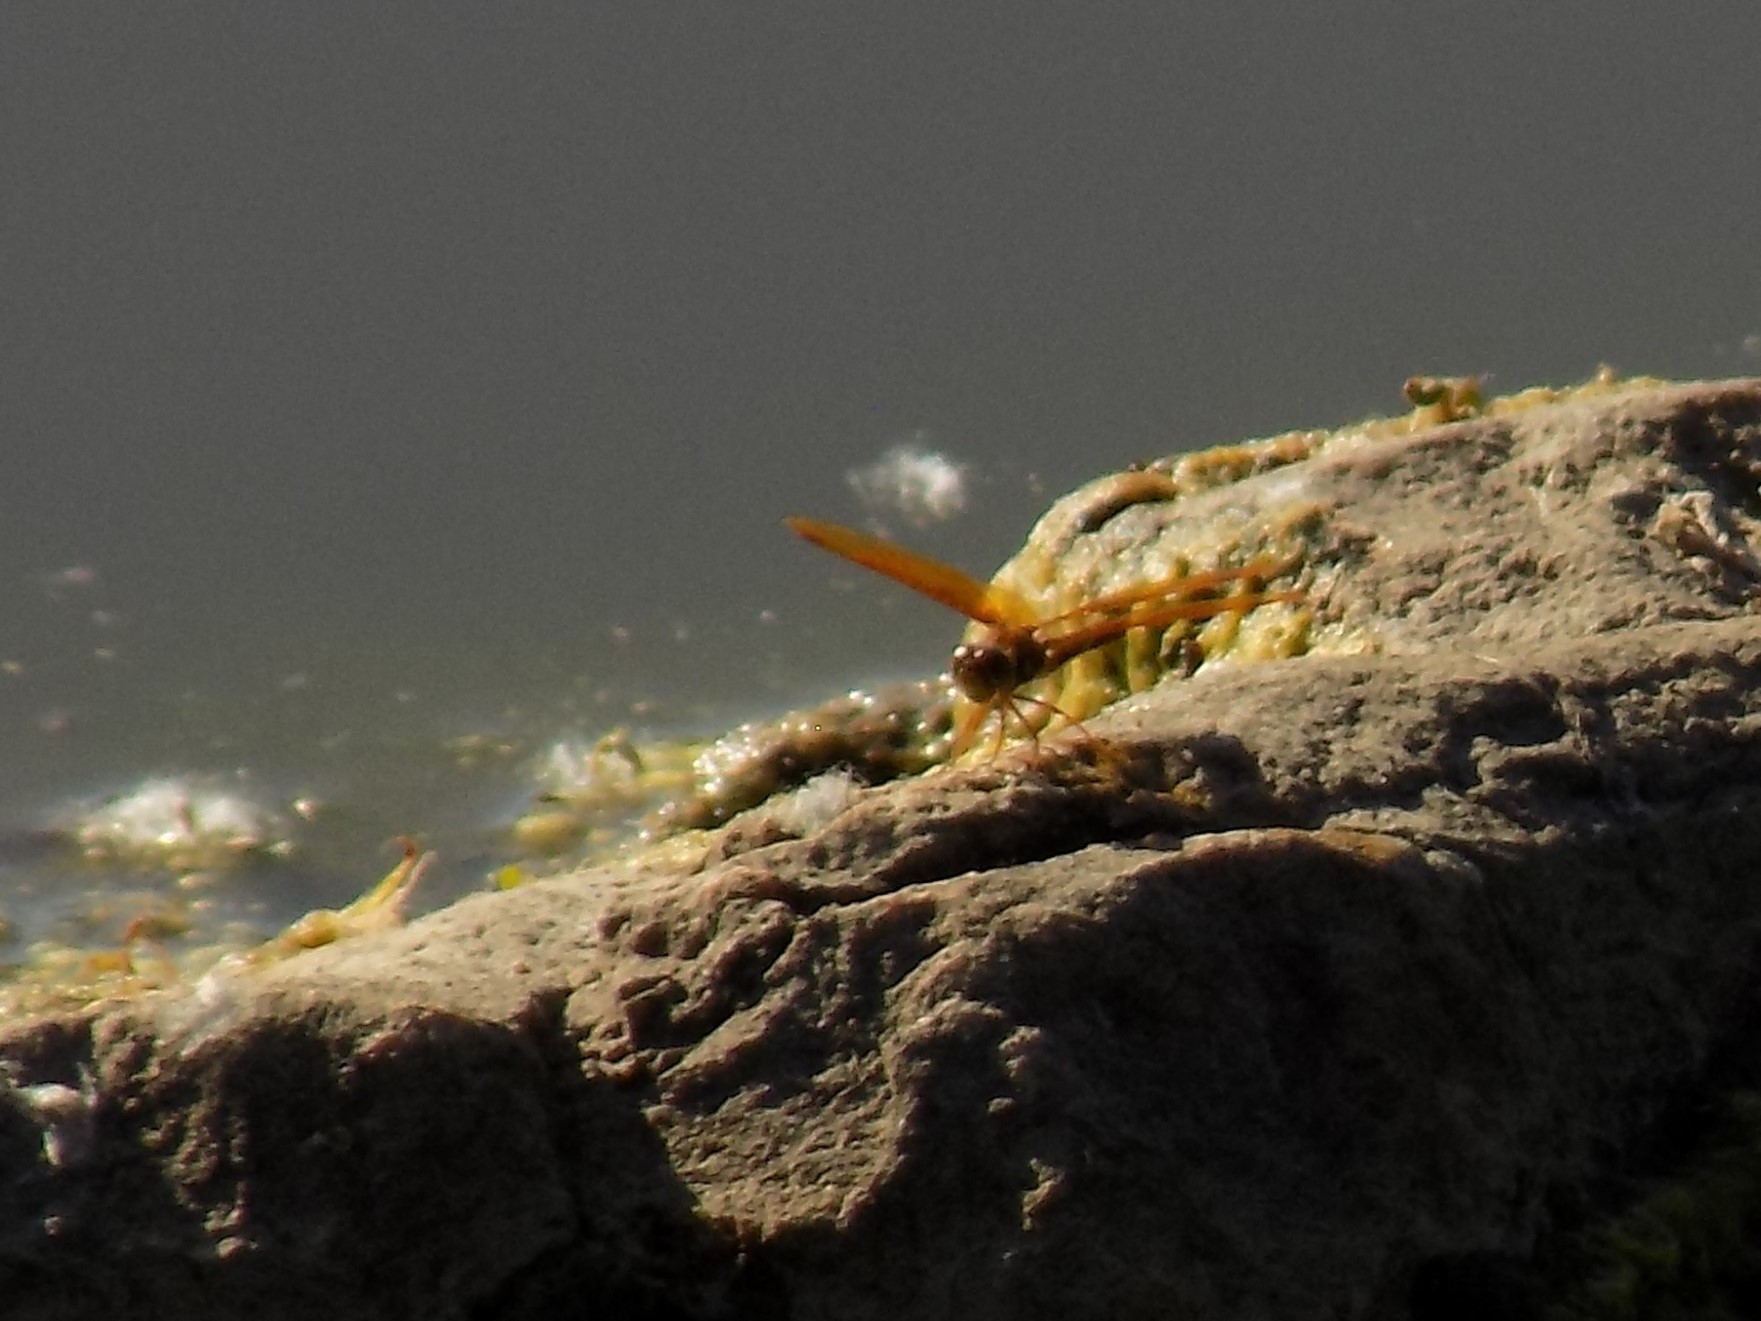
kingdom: Animalia
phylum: Arthropoda
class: Insecta
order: Odonata
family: Libellulidae
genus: Perithemis
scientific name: Perithemis tenera
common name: Eastern amberwing
